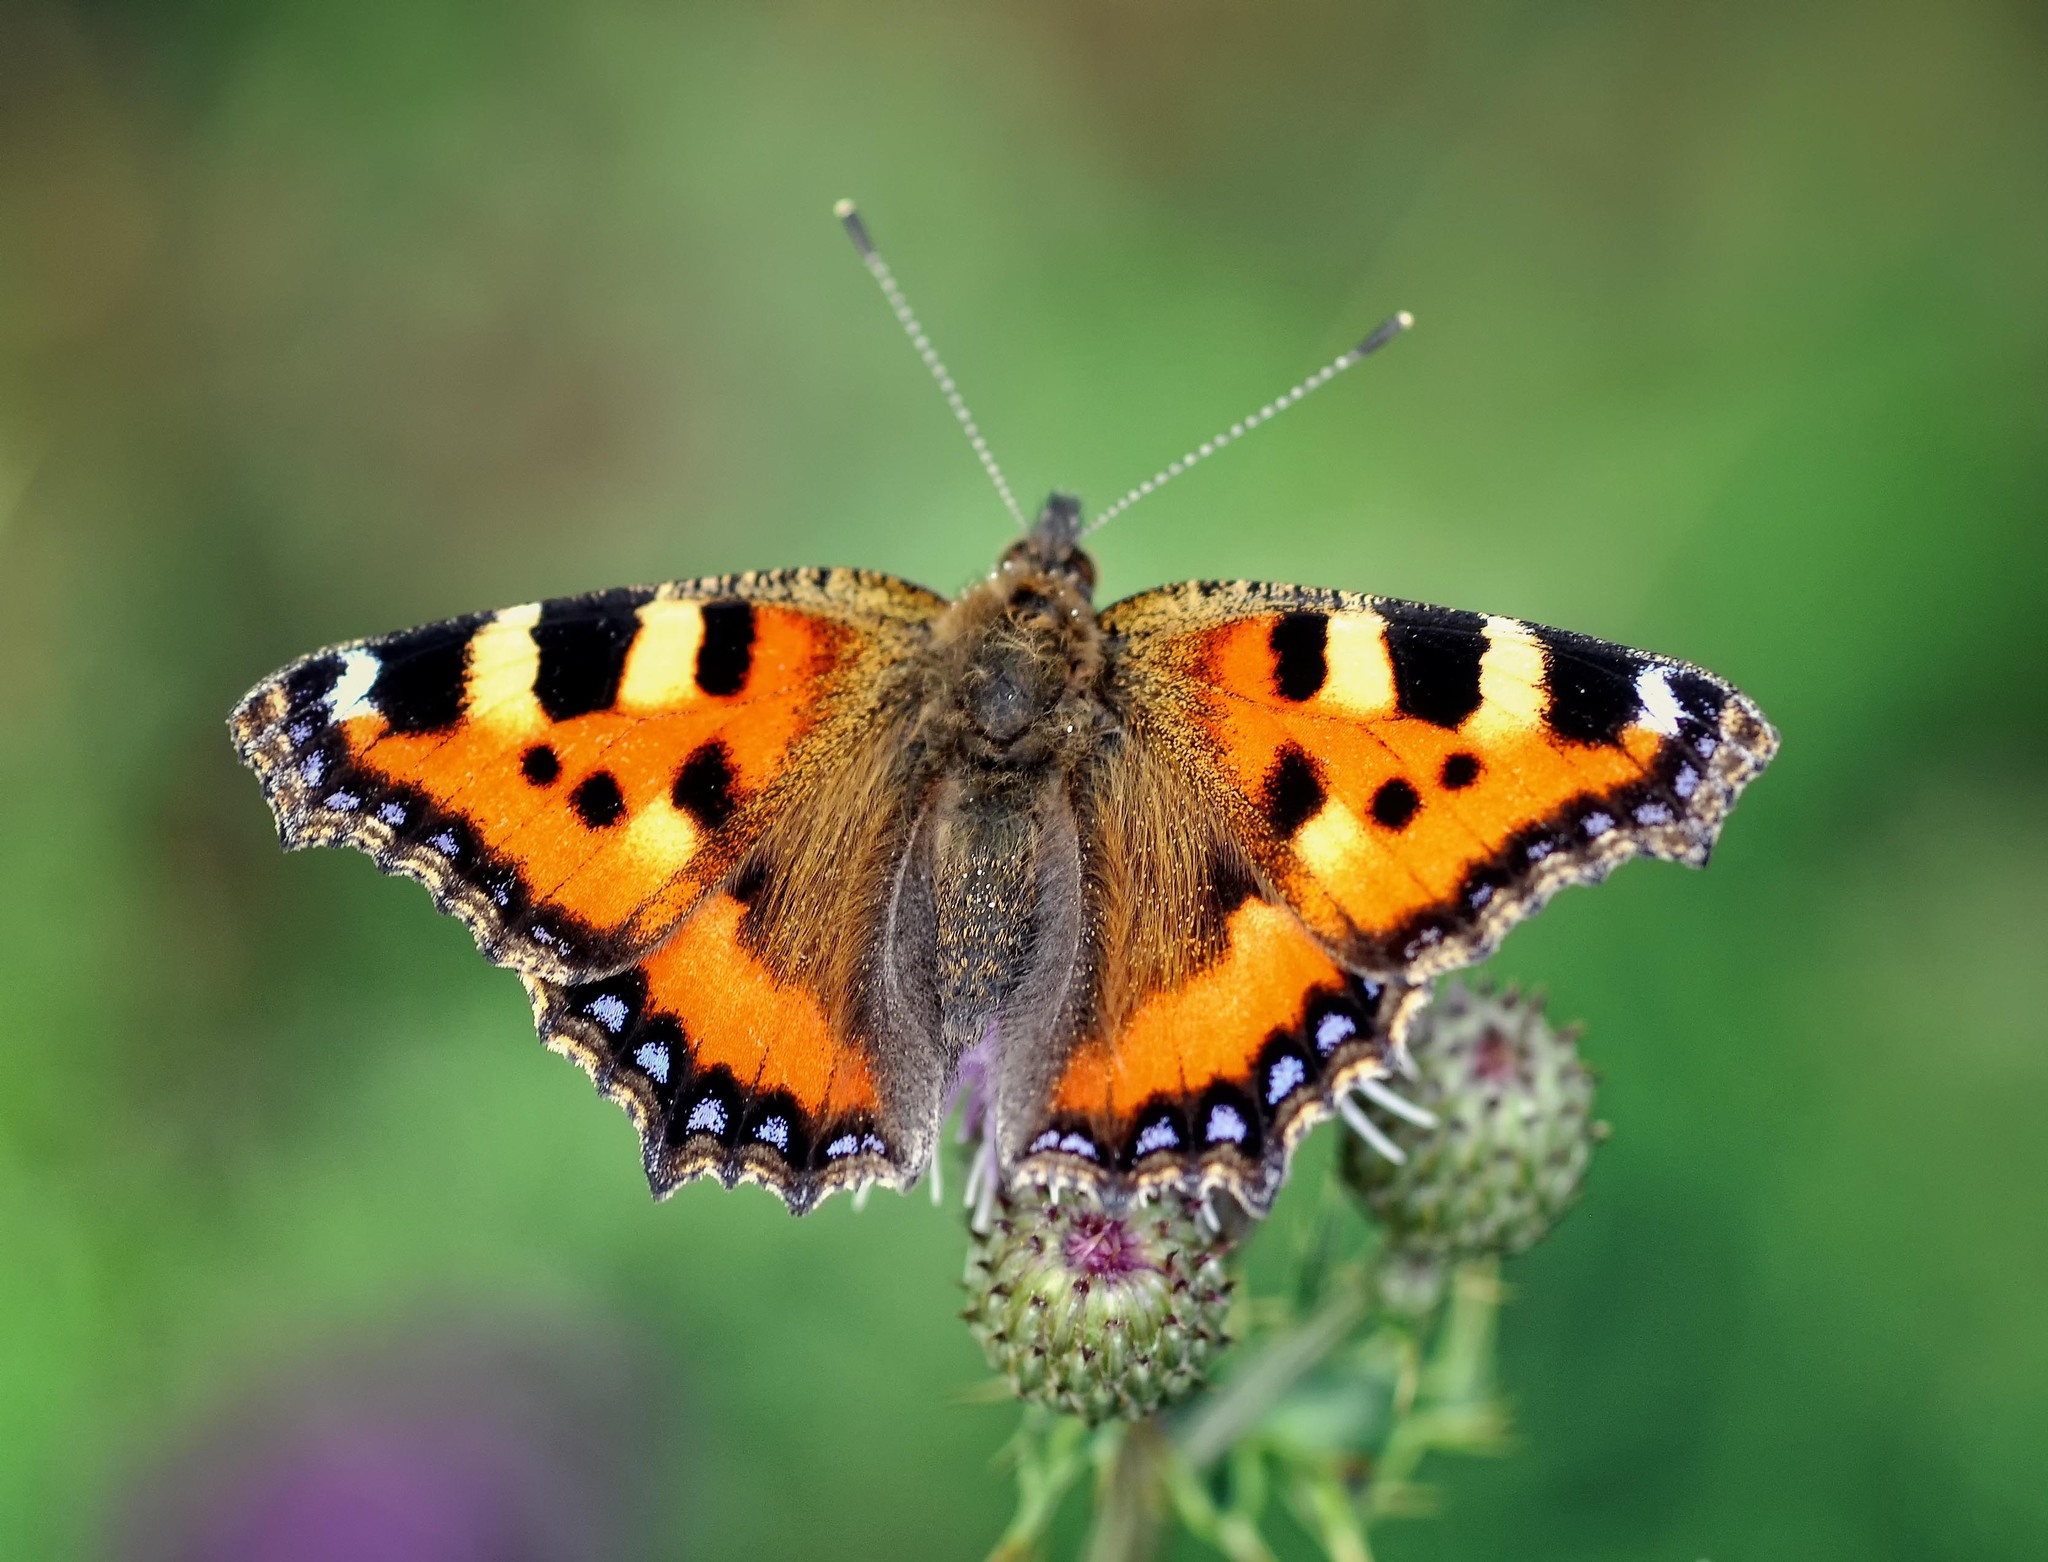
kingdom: Animalia
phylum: Arthropoda
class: Insecta
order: Lepidoptera
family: Nymphalidae
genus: Aglais
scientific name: Aglais urticae
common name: Small tortoiseshell
